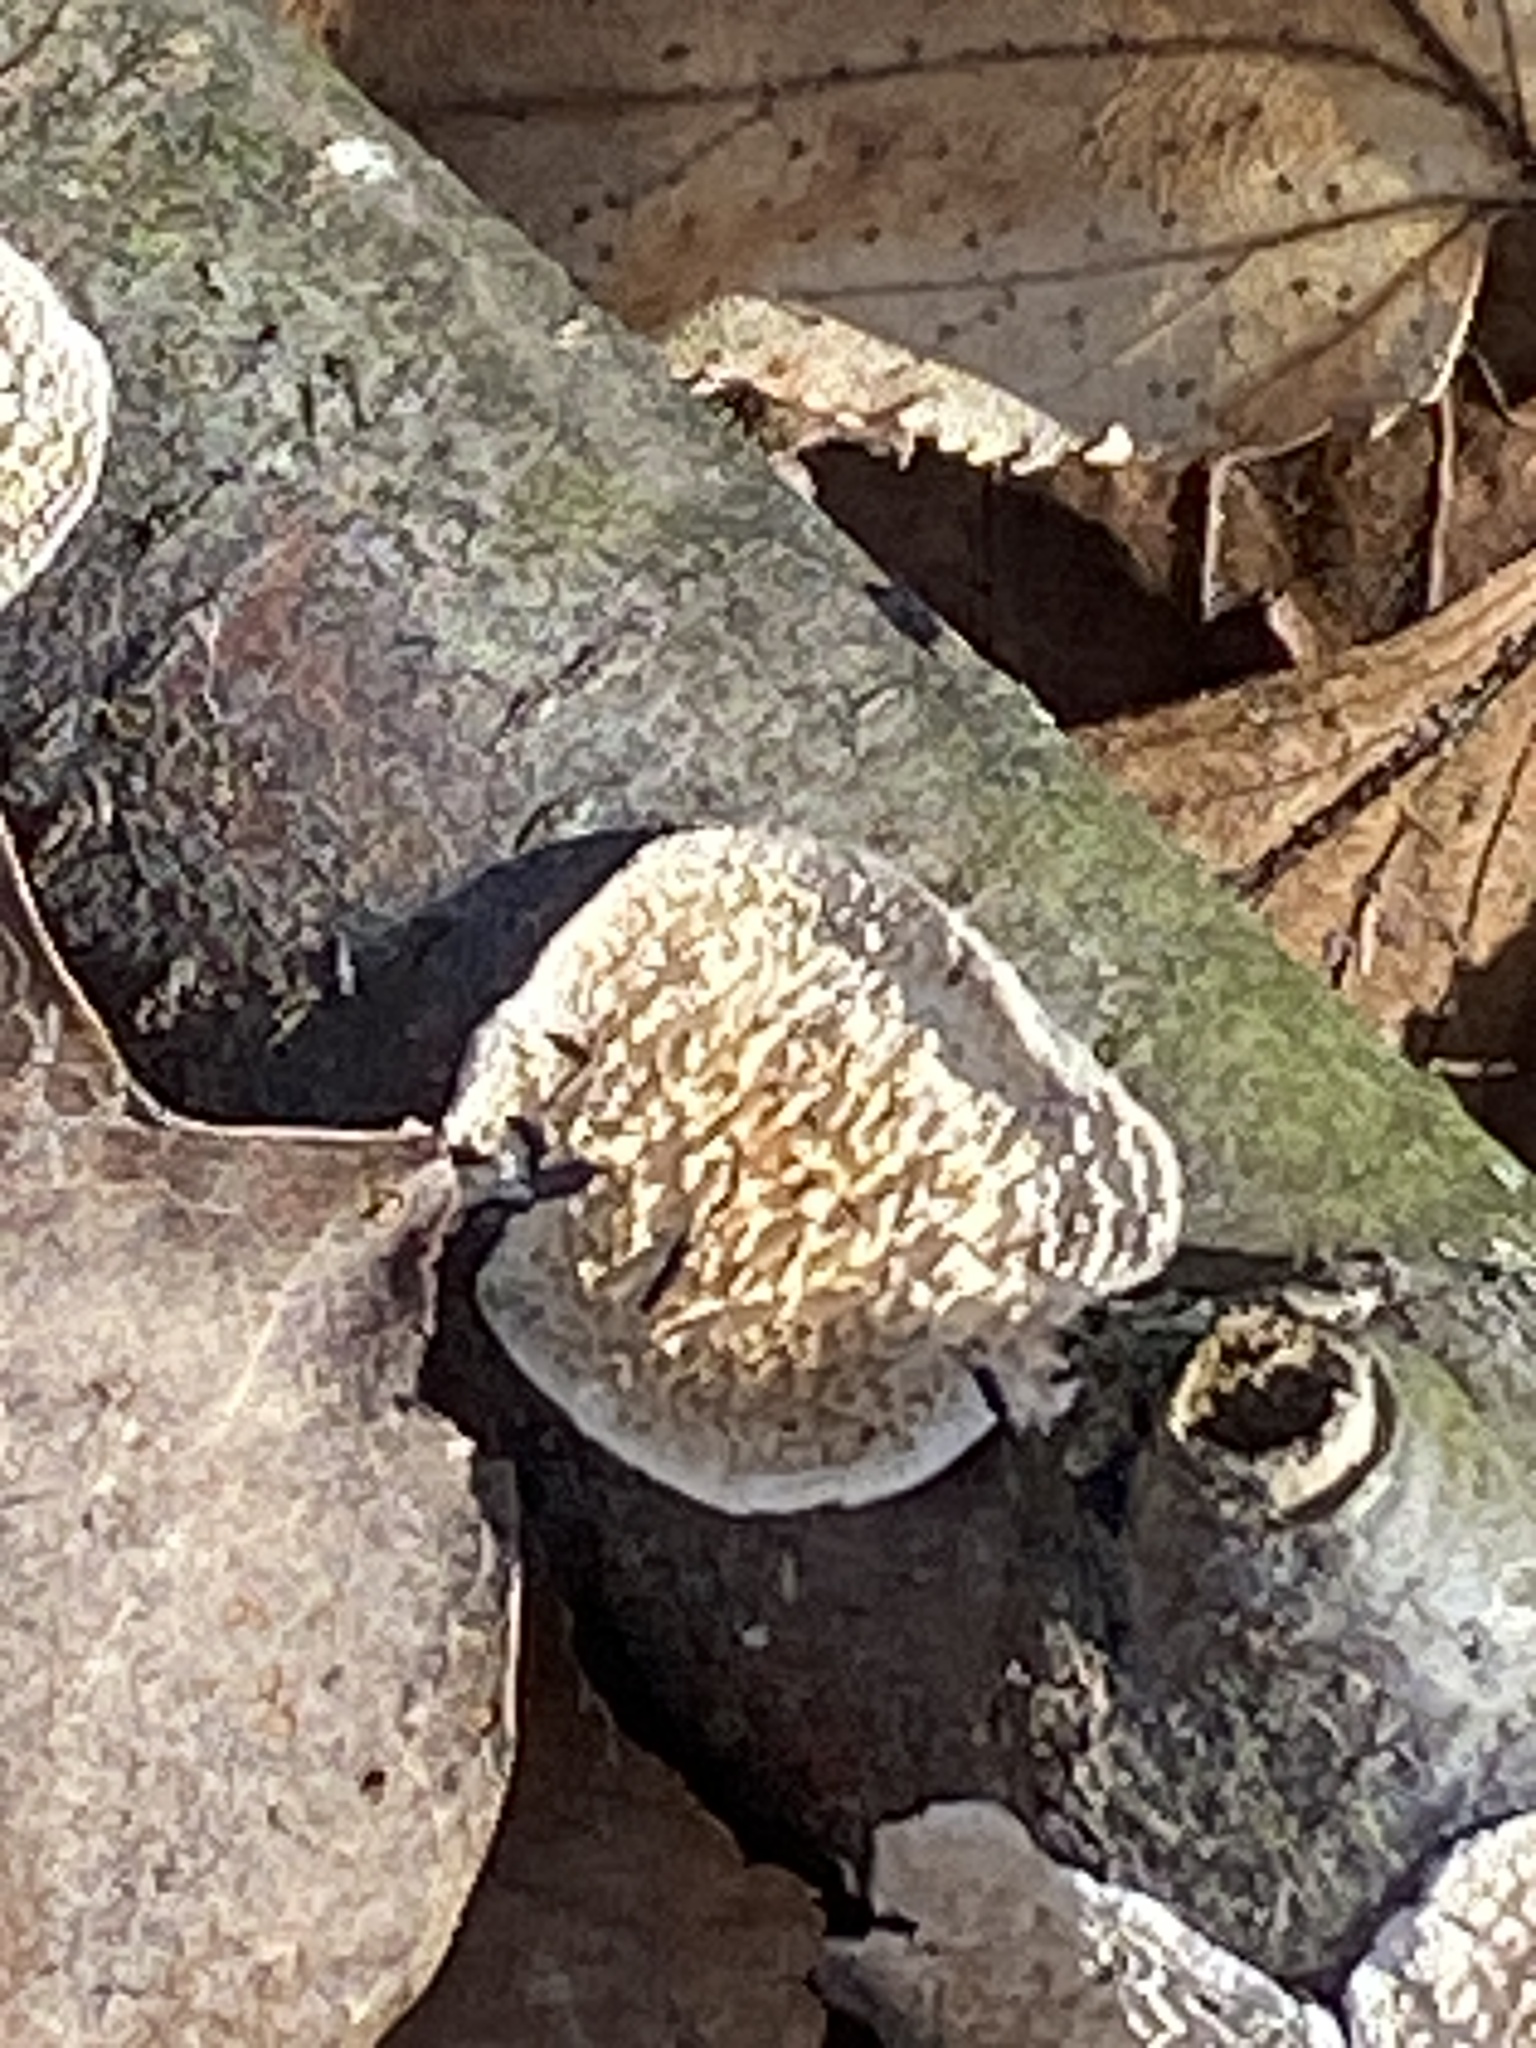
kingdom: Fungi
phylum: Basidiomycota
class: Agaricomycetes
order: Polyporales
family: Irpicaceae
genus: Irpex
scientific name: Irpex lacteus
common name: Milk-white toothed polypore
